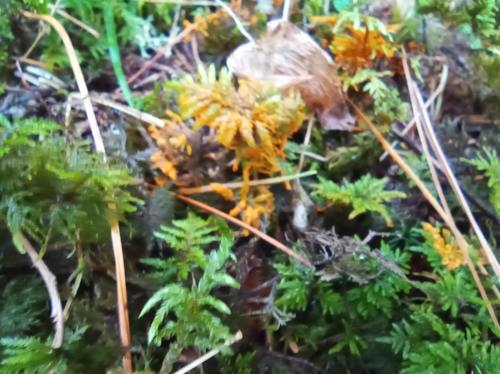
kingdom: Protozoa
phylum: Mycetozoa
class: Myxomycetes
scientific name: Myxomycetes
